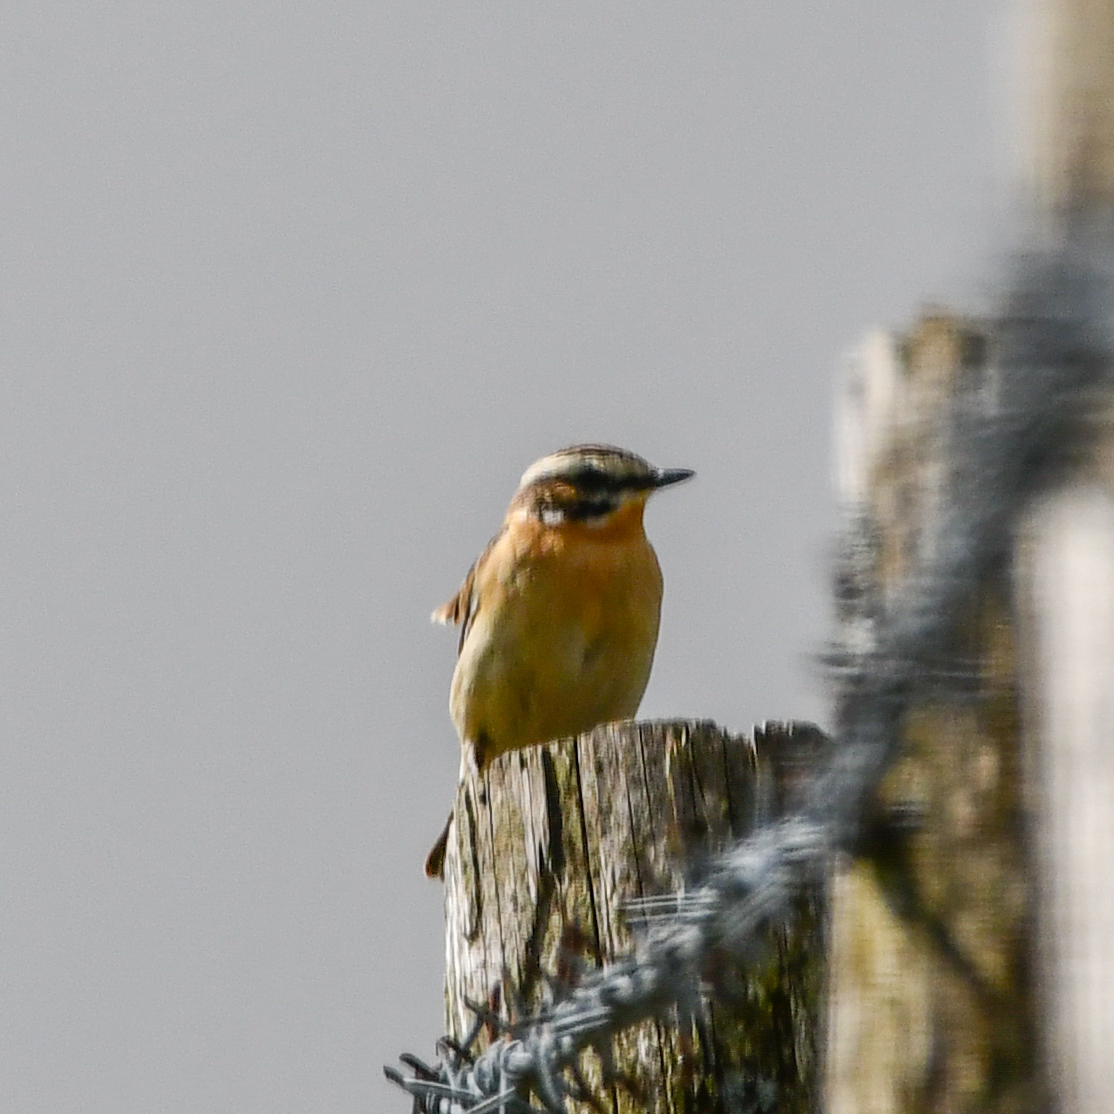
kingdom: Animalia
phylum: Chordata
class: Aves
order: Passeriformes
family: Muscicapidae
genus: Saxicola
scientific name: Saxicola rubetra
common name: Whinchat
